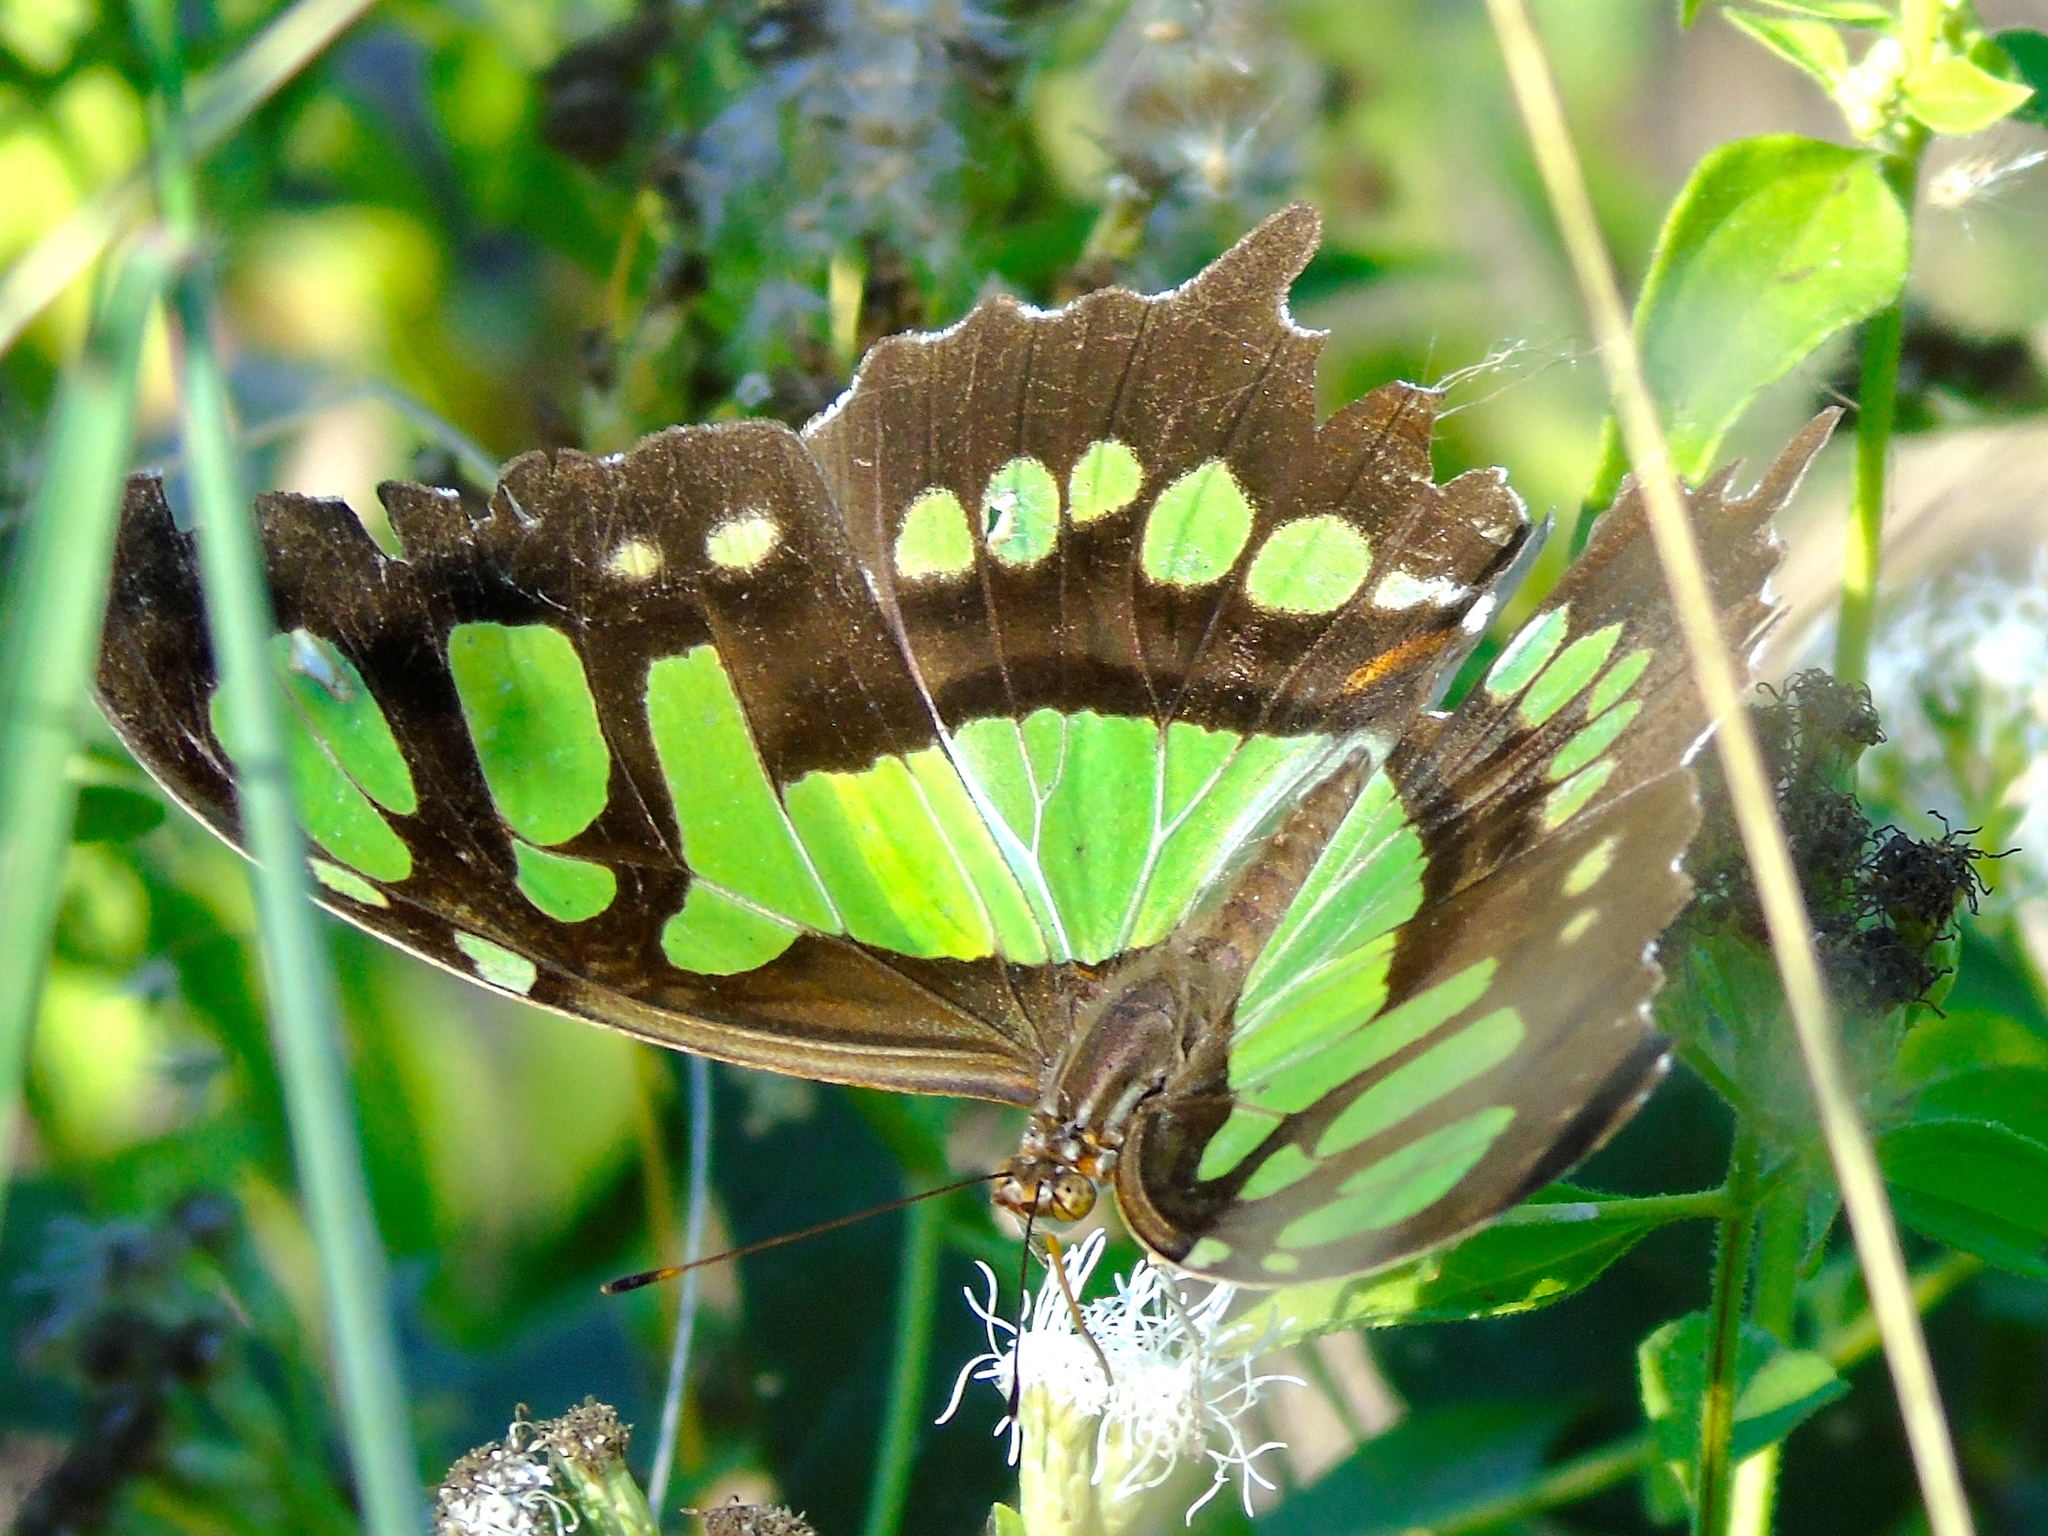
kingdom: Animalia
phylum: Arthropoda
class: Insecta
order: Lepidoptera
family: Nymphalidae
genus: Siproeta
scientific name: Siproeta stelenes
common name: Malachite
